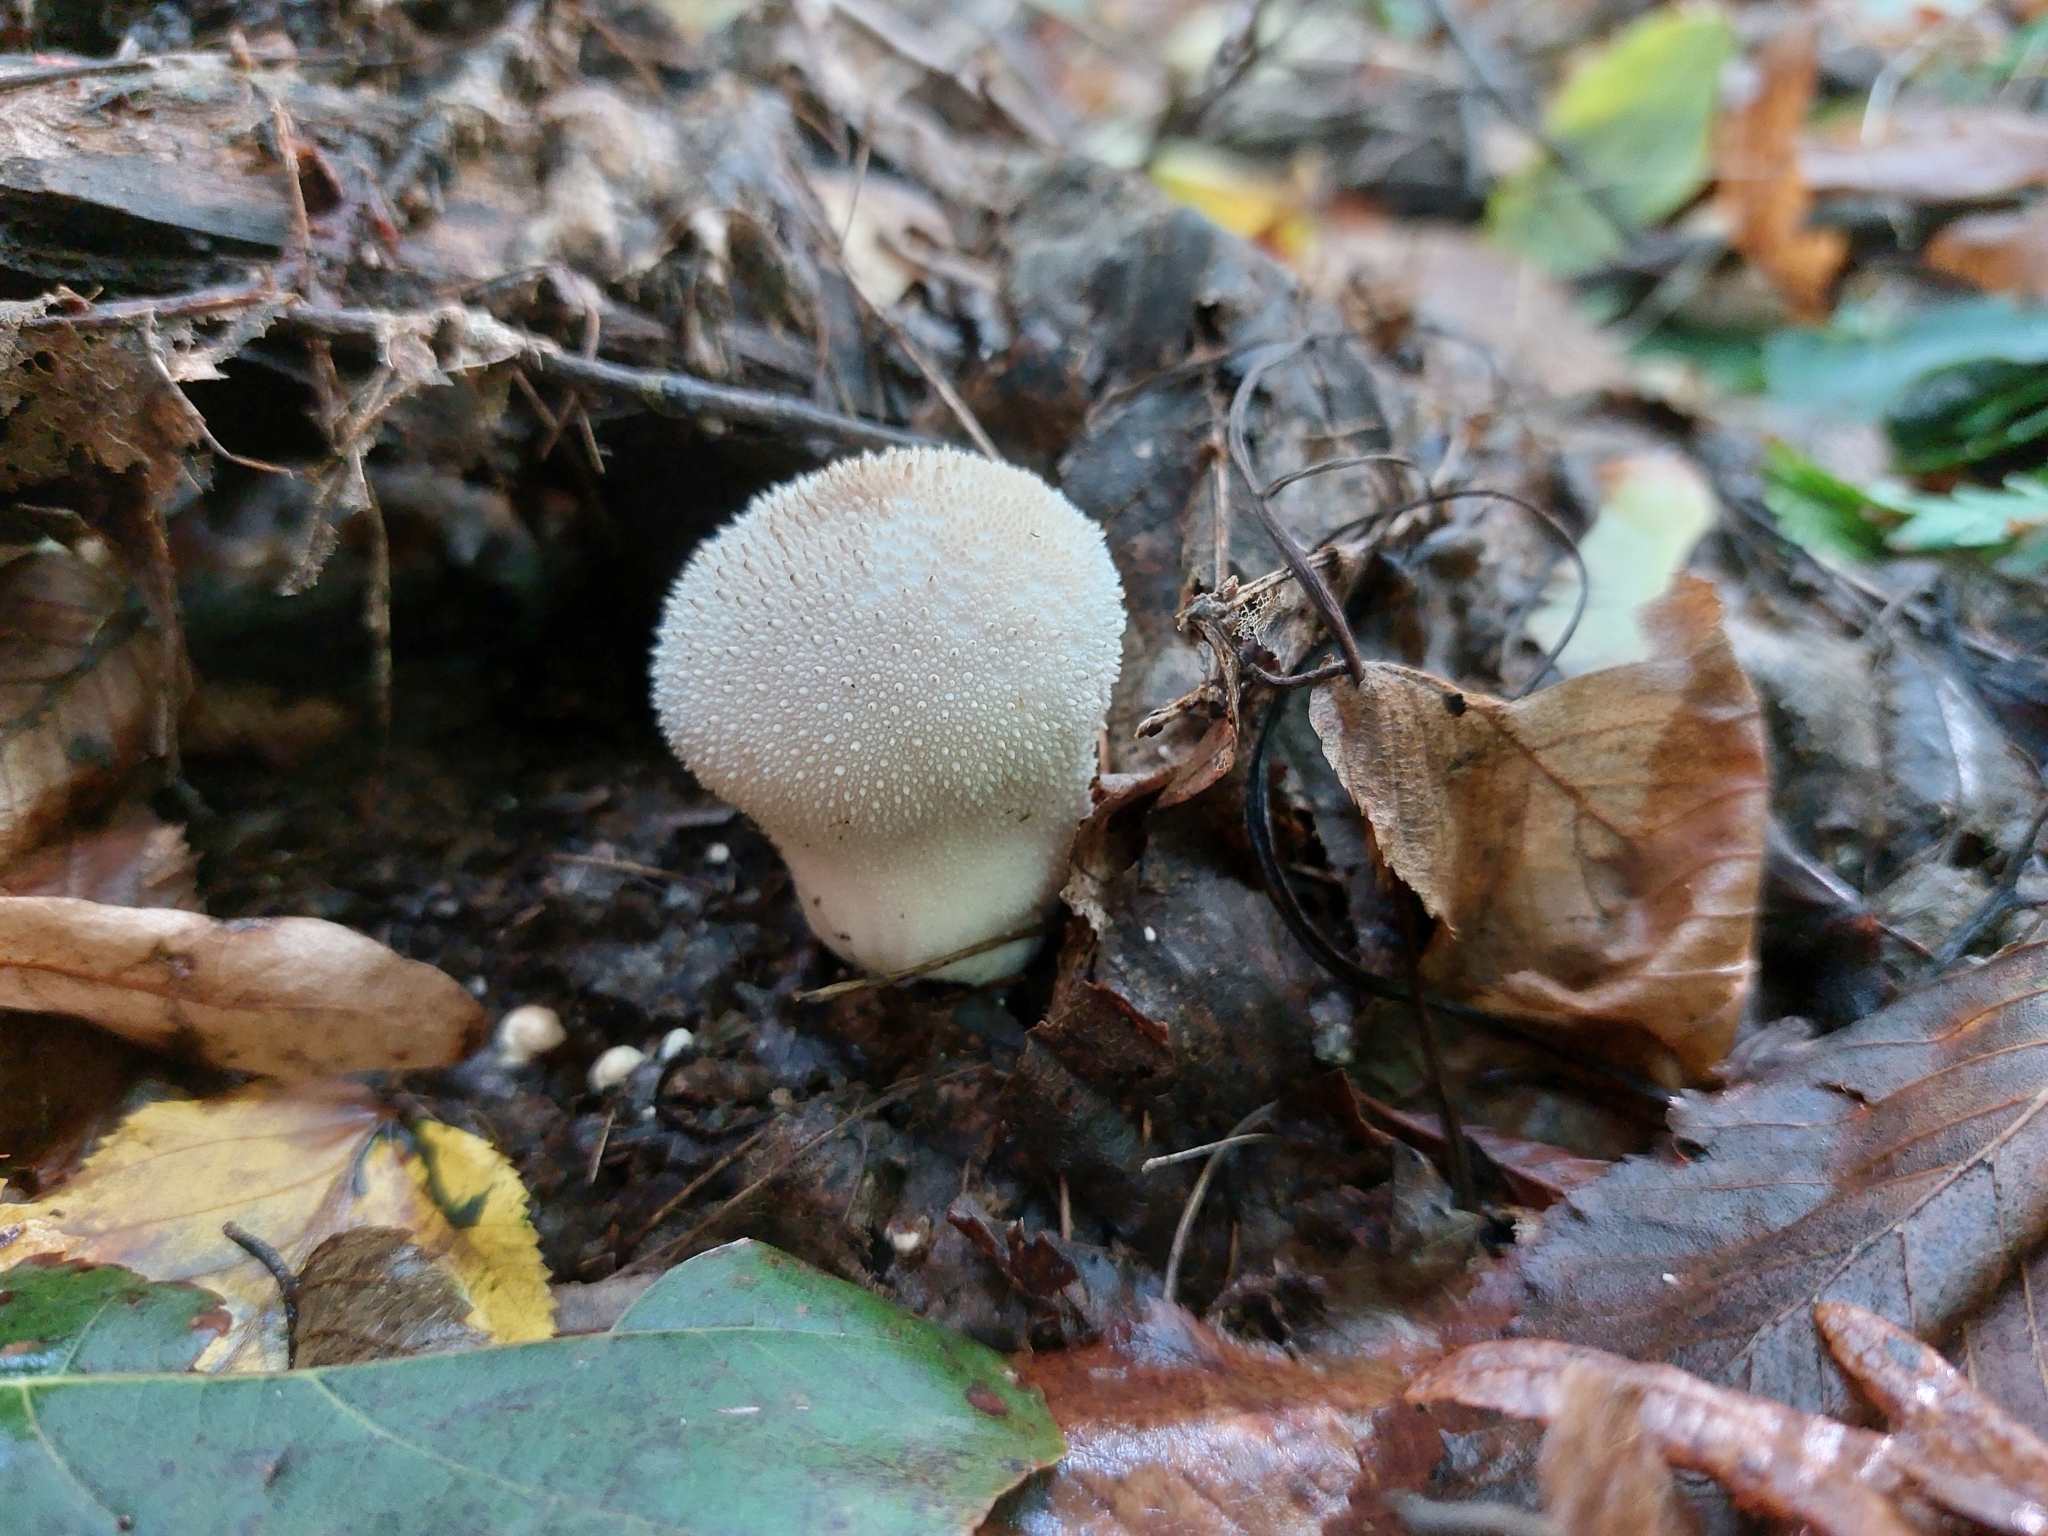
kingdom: Fungi
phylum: Basidiomycota
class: Agaricomycetes
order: Agaricales
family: Lycoperdaceae
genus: Lycoperdon
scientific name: Lycoperdon perlatum
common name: Common puffball
